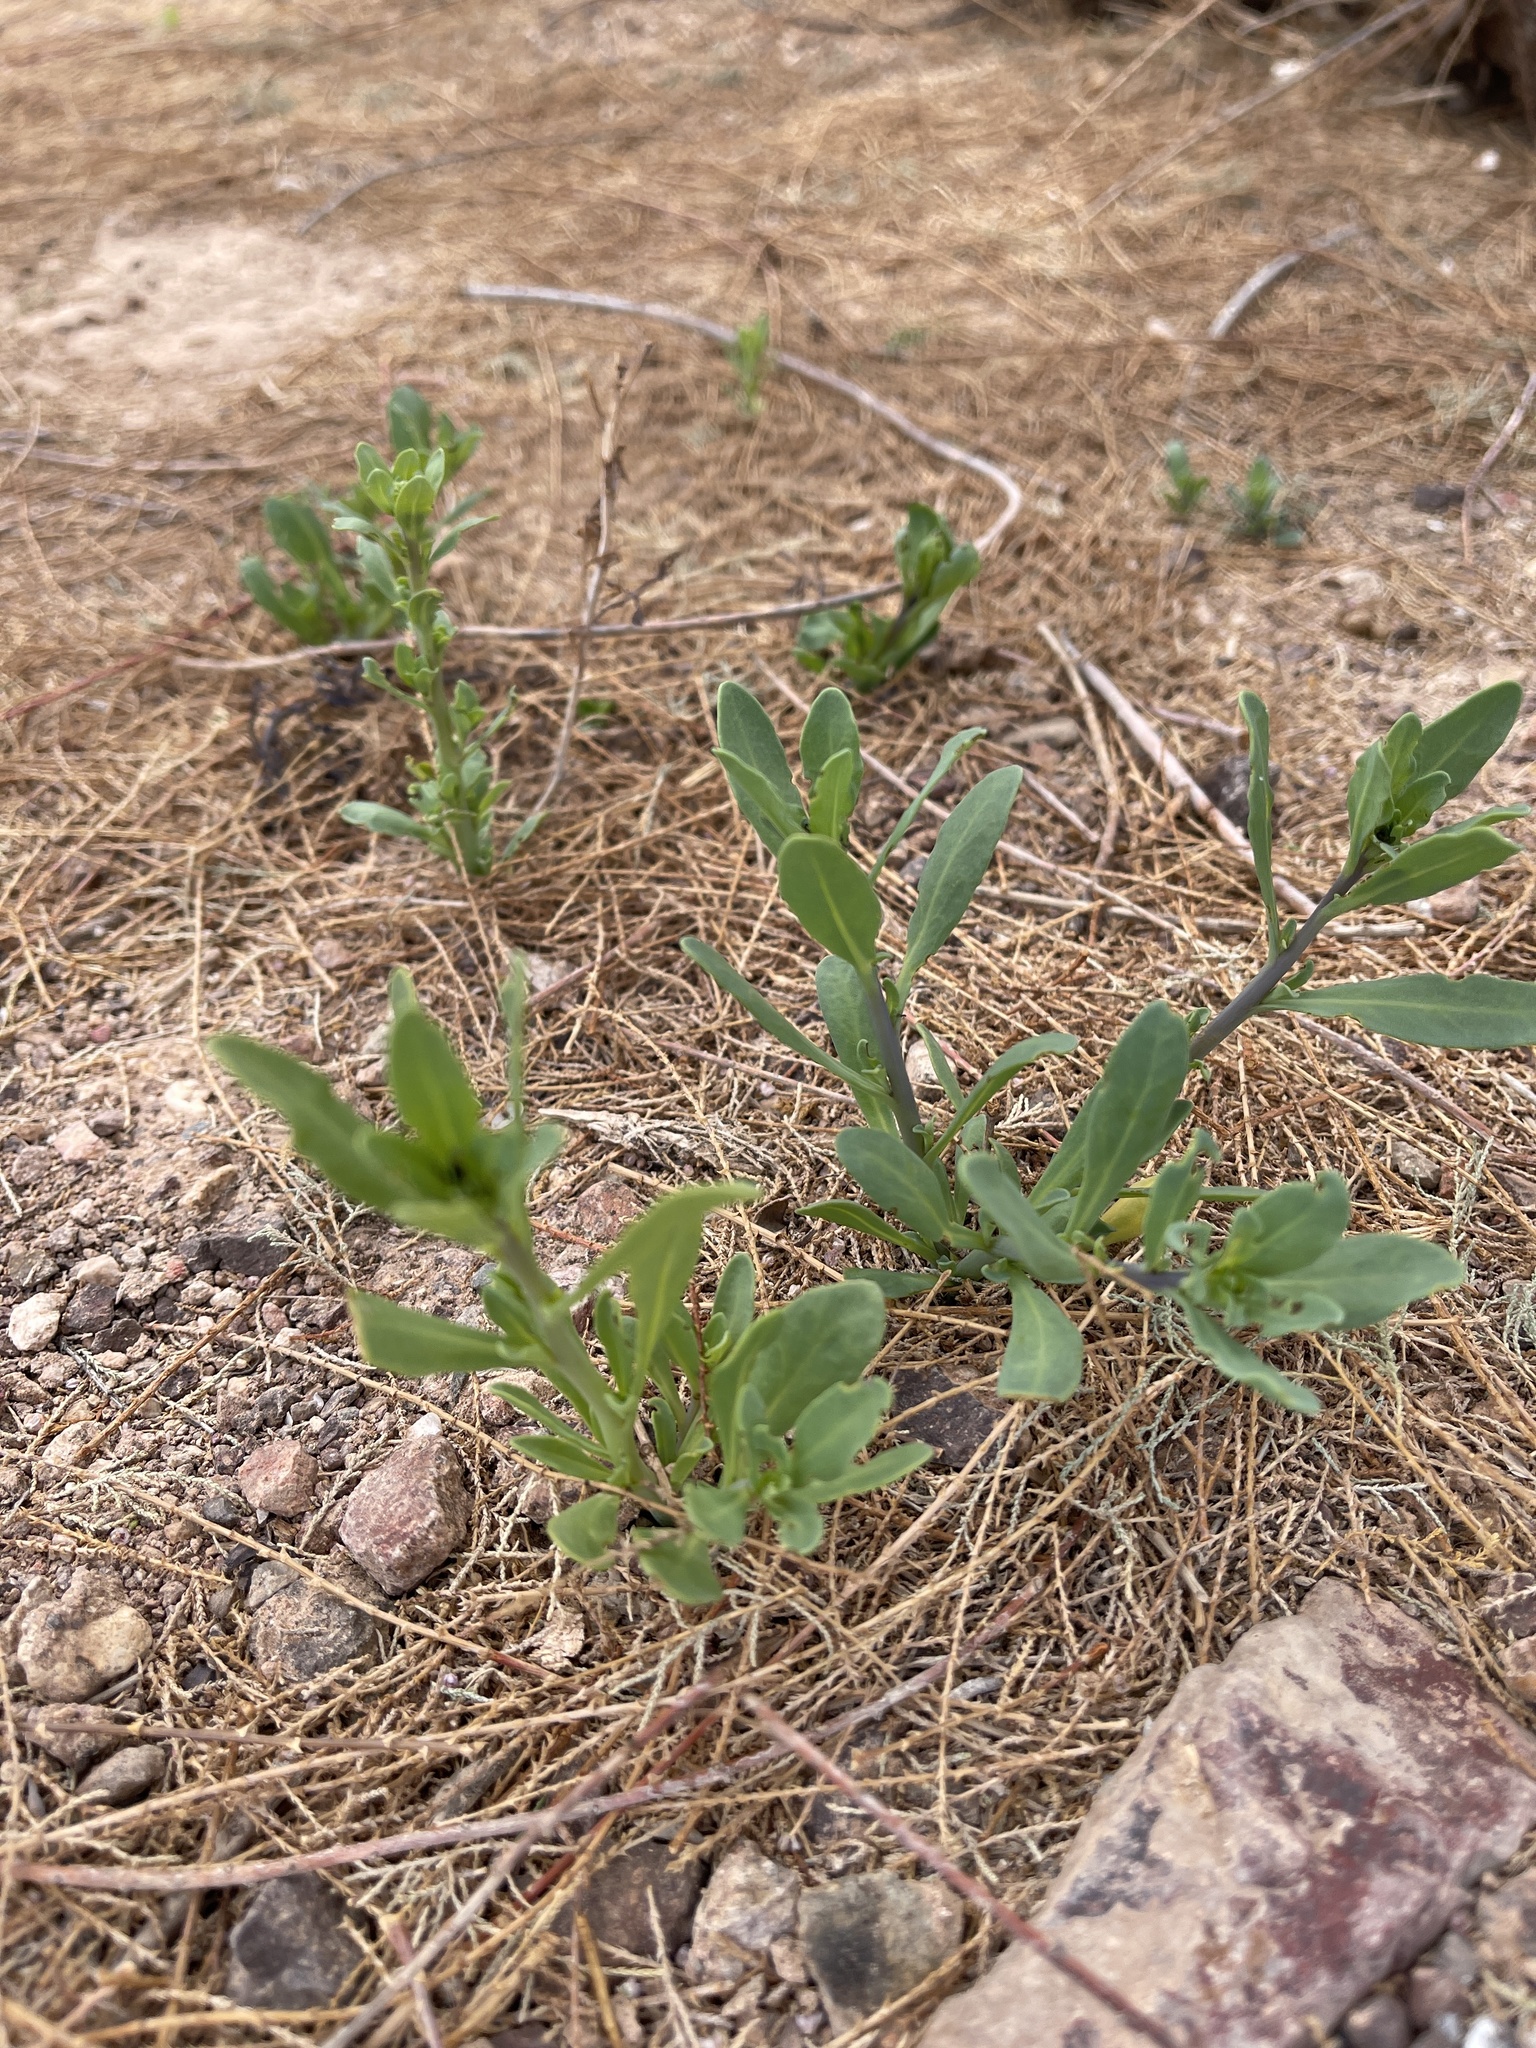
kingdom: Plantae
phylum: Tracheophyta
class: Magnoliopsida
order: Boraginales
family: Heliotropiaceae
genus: Heliotropium
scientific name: Heliotropium curassavicum
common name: Seaside heliotrope
